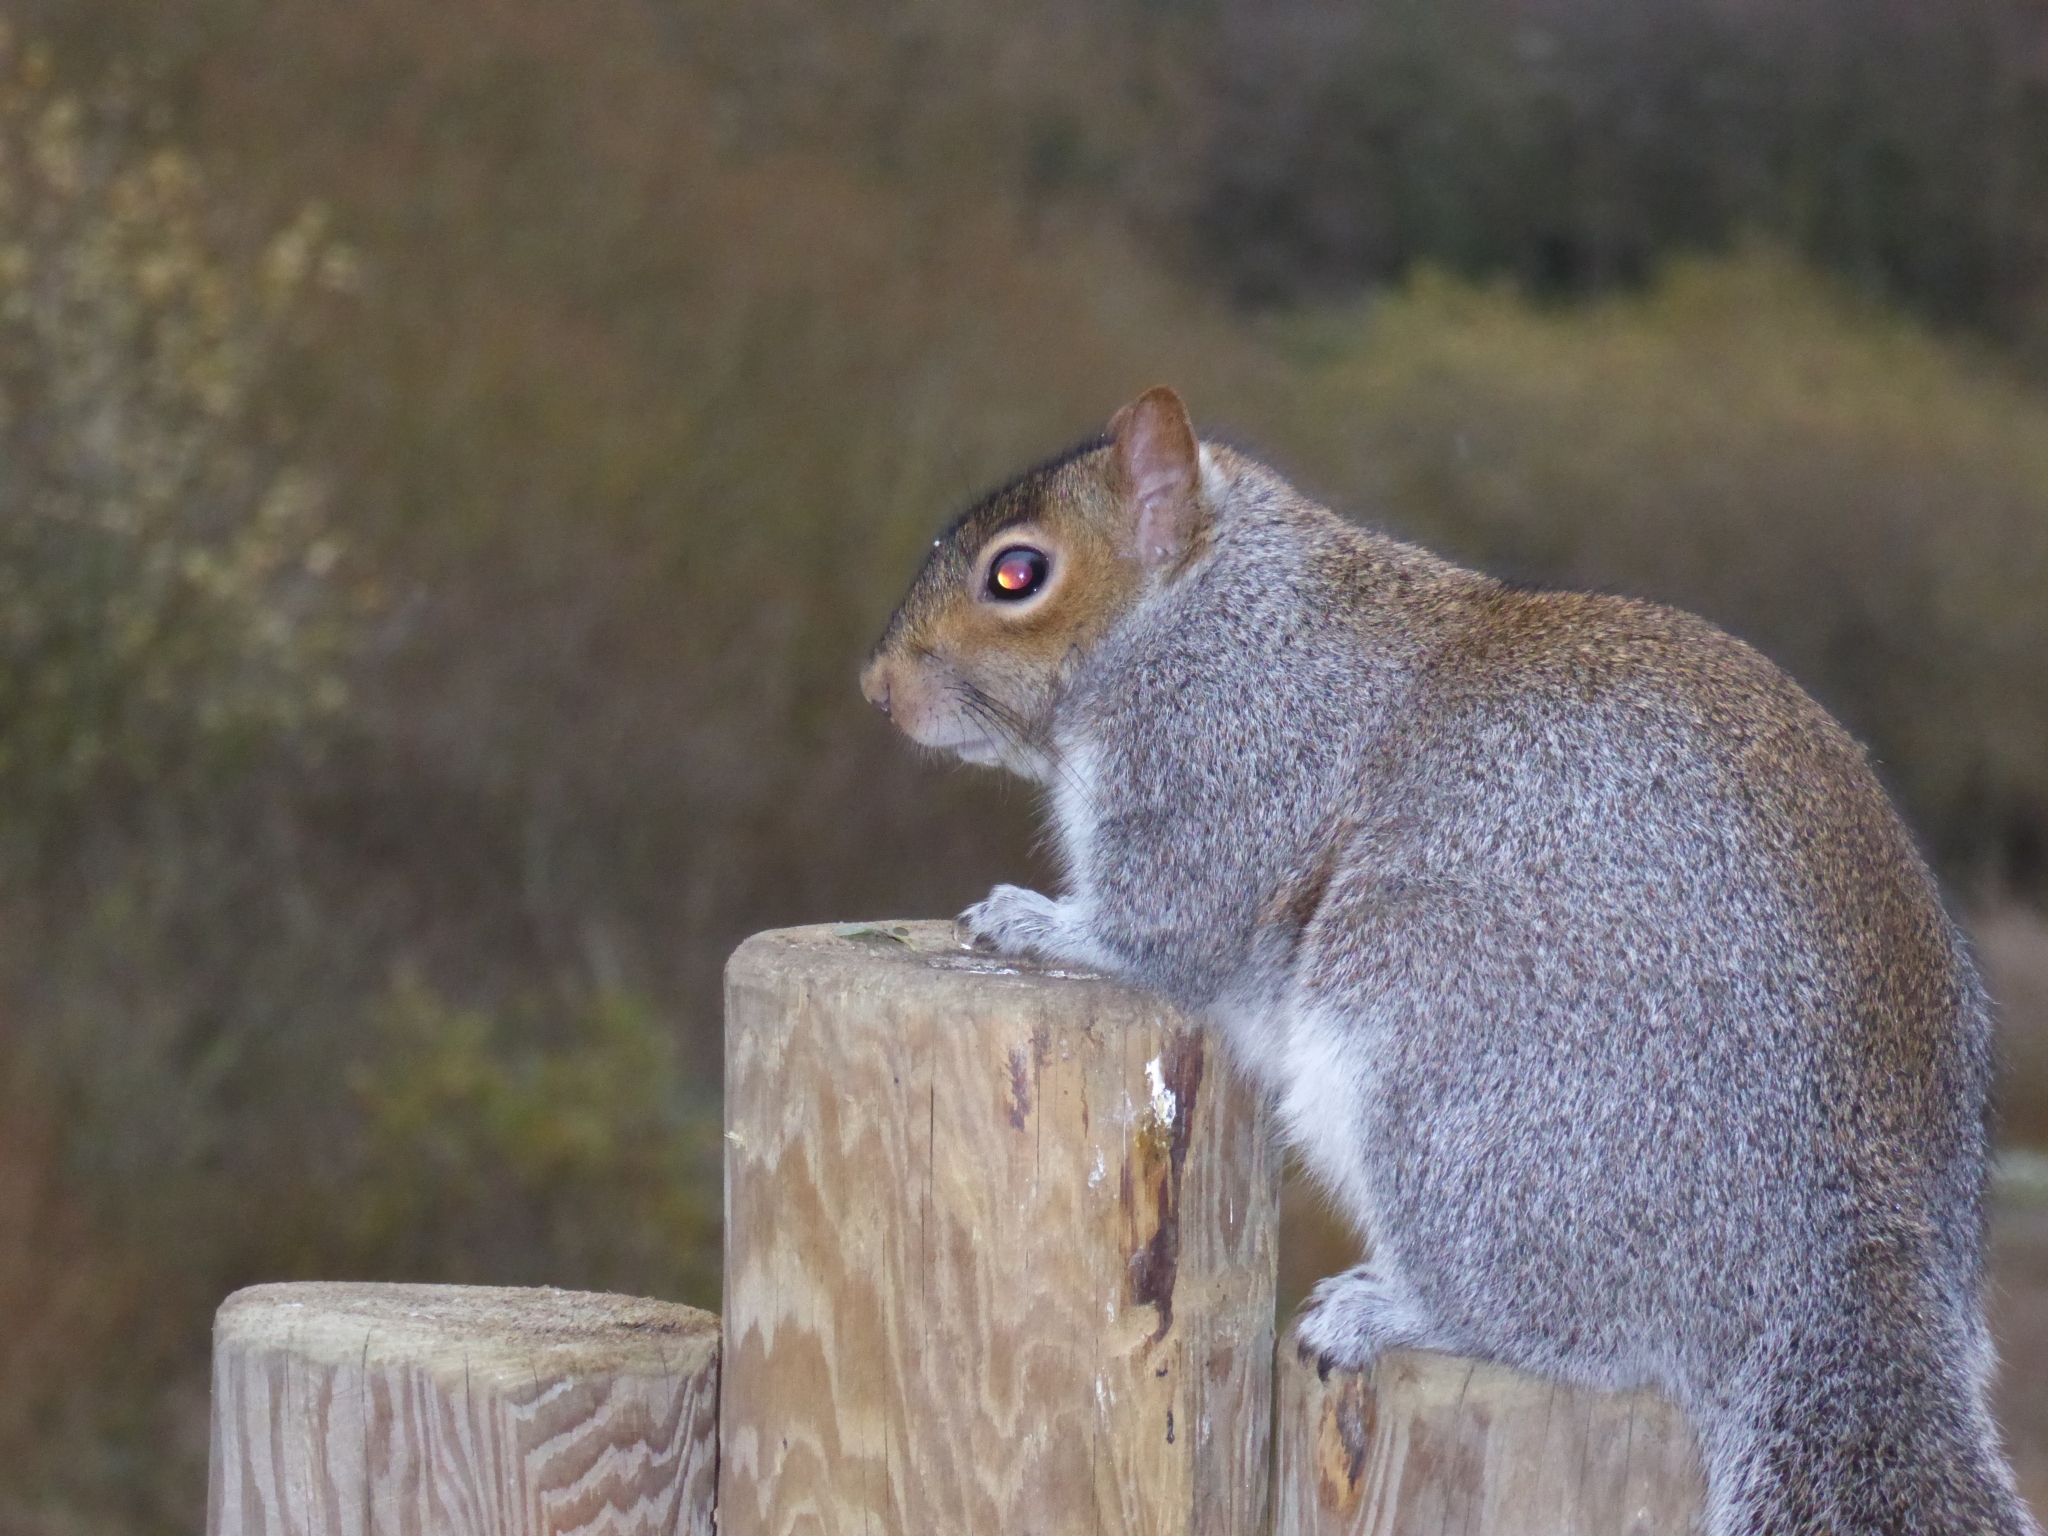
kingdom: Animalia
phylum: Chordata
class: Mammalia
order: Rodentia
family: Sciuridae
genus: Sciurus
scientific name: Sciurus carolinensis
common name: Eastern gray squirrel
